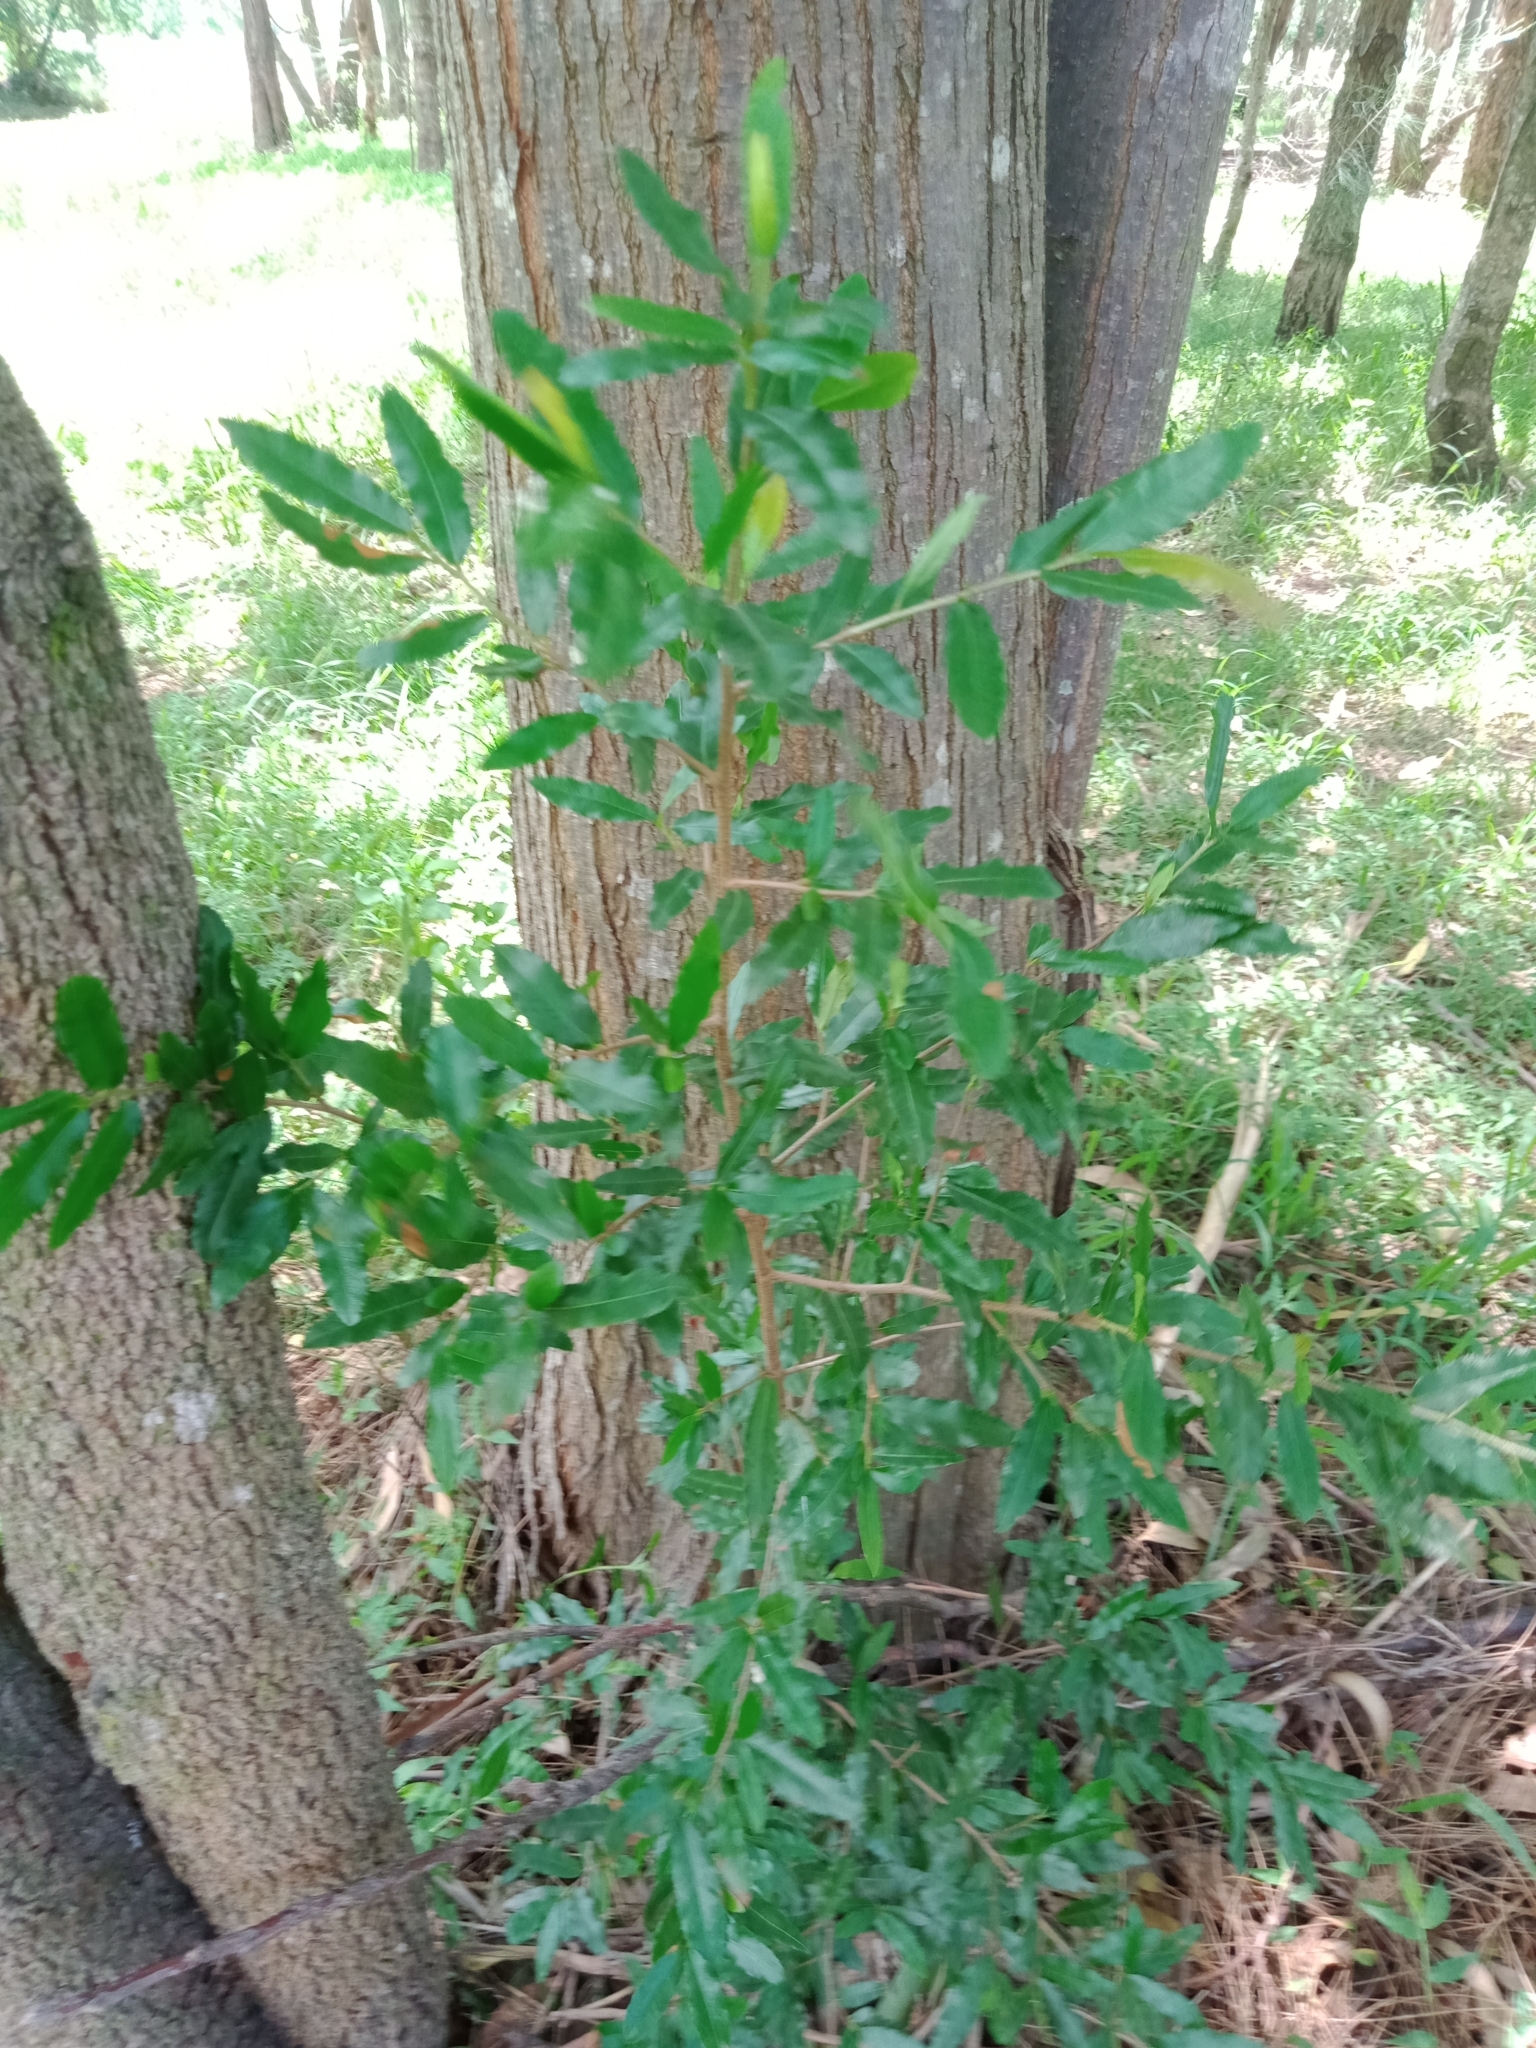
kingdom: Plantae
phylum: Tracheophyta
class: Magnoliopsida
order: Malpighiales
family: Ochnaceae
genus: Ochna
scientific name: Ochna serrulata
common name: Mickey mouse plant
